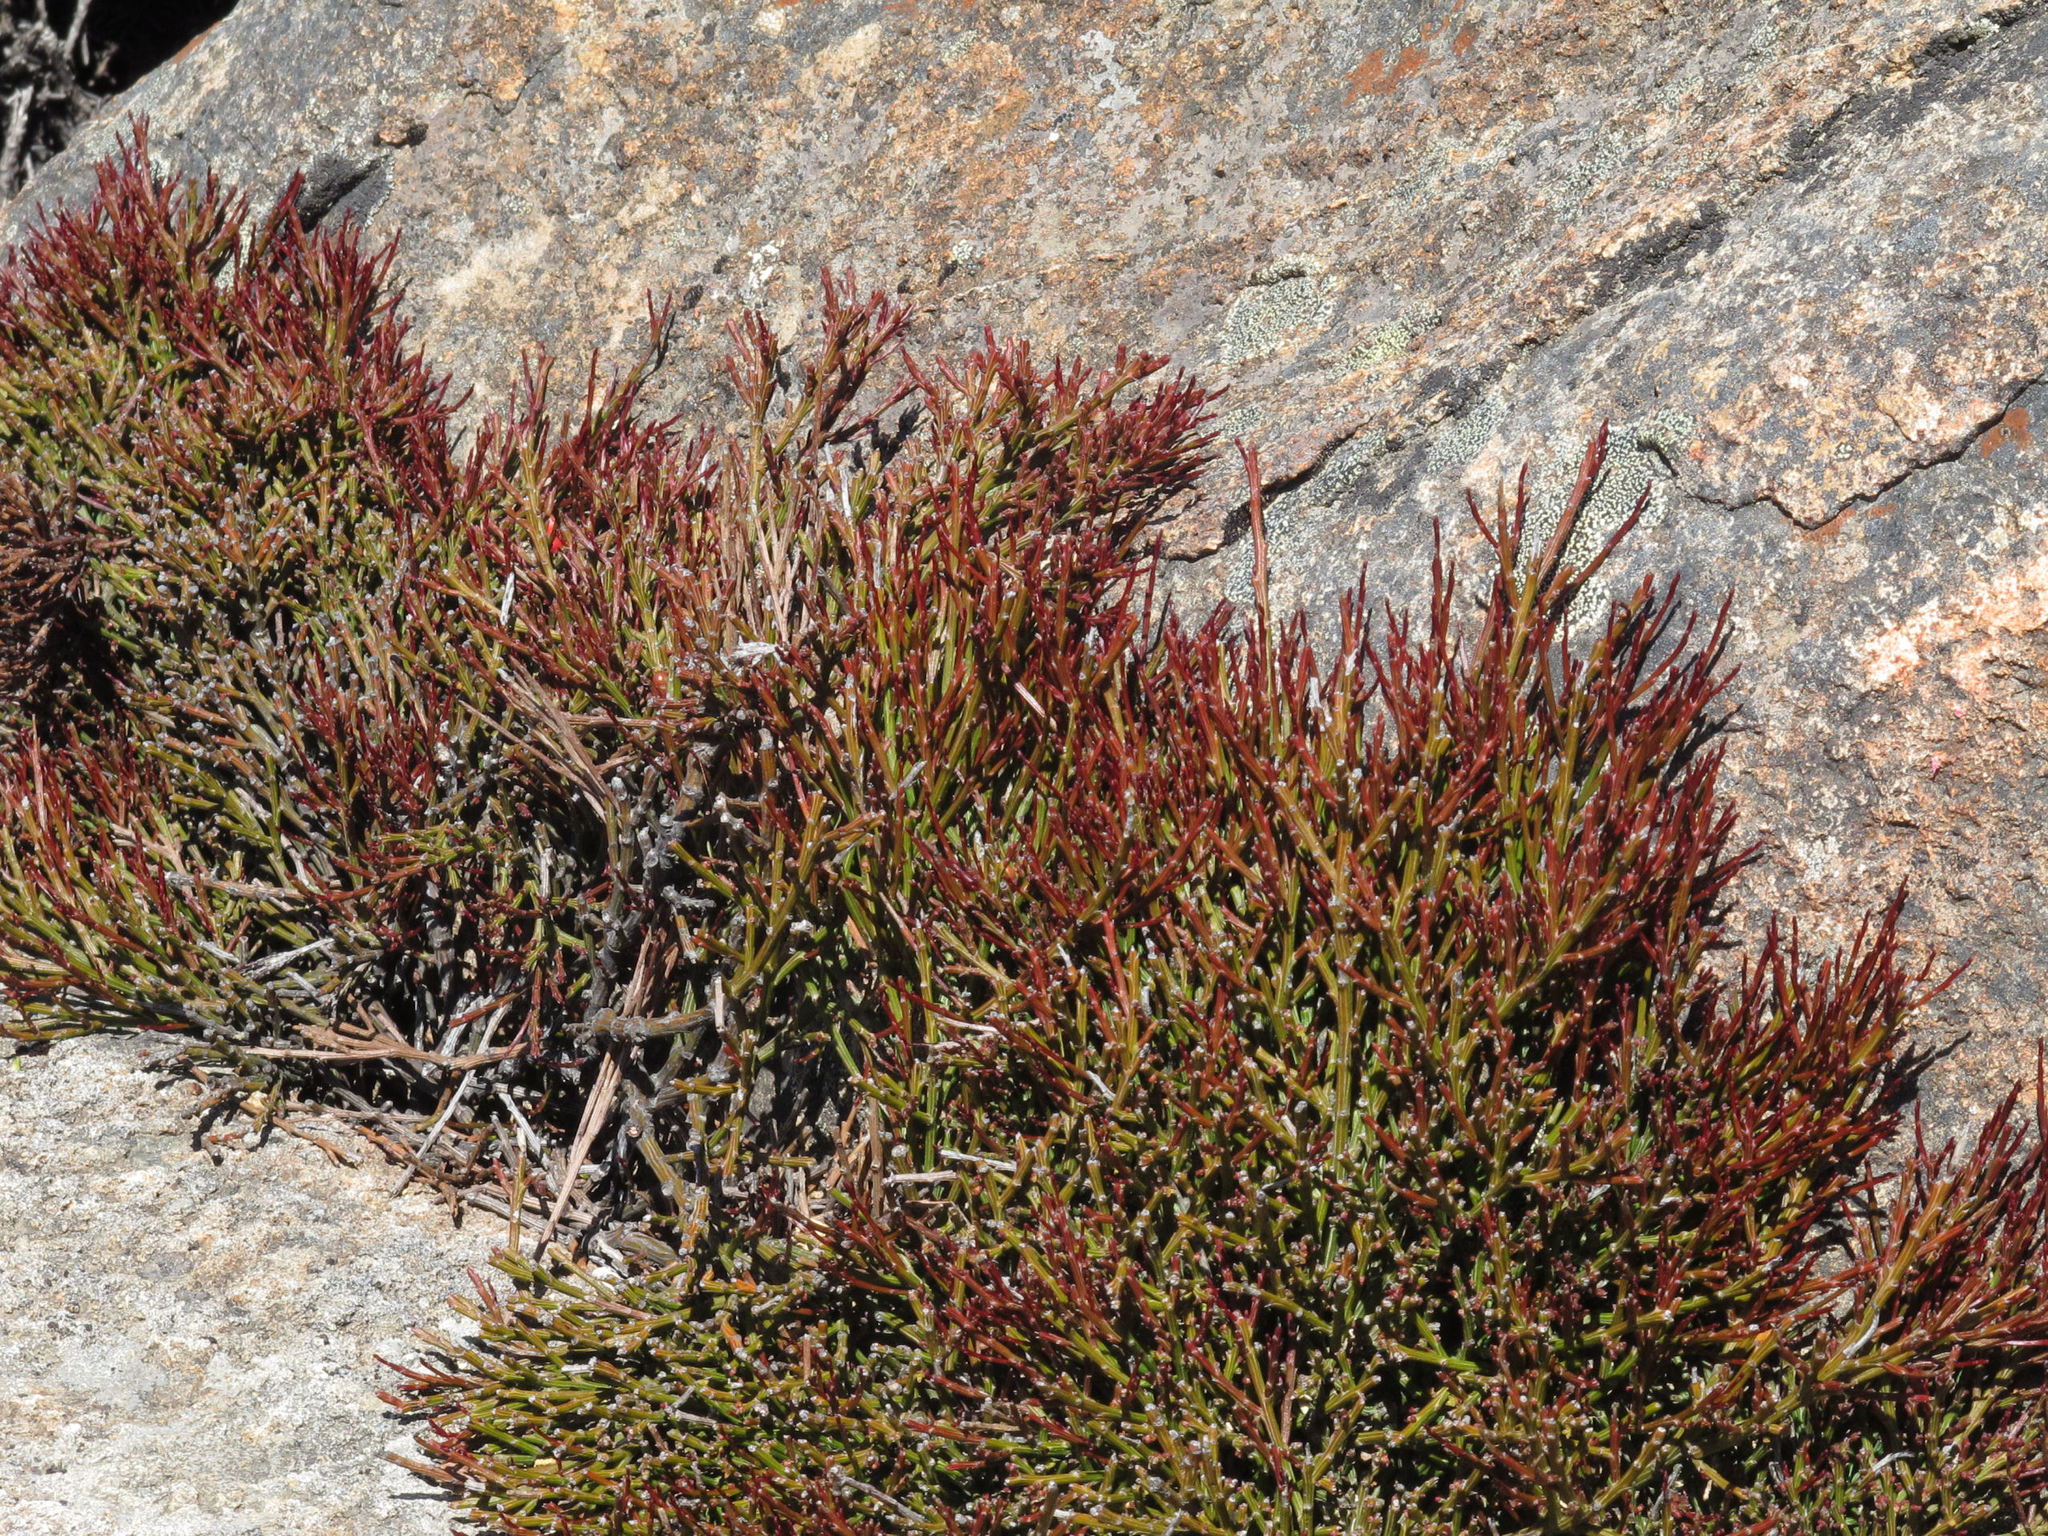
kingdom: Plantae
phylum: Tracheophyta
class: Magnoliopsida
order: Santalales
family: Santalaceae
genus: Exocarpos
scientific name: Exocarpos humifusus
